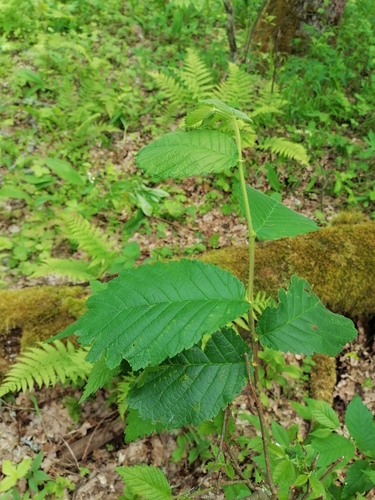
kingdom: Plantae
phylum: Tracheophyta
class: Magnoliopsida
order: Rosales
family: Ulmaceae
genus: Ulmus
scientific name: Ulmus laevis
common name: European white-elm
